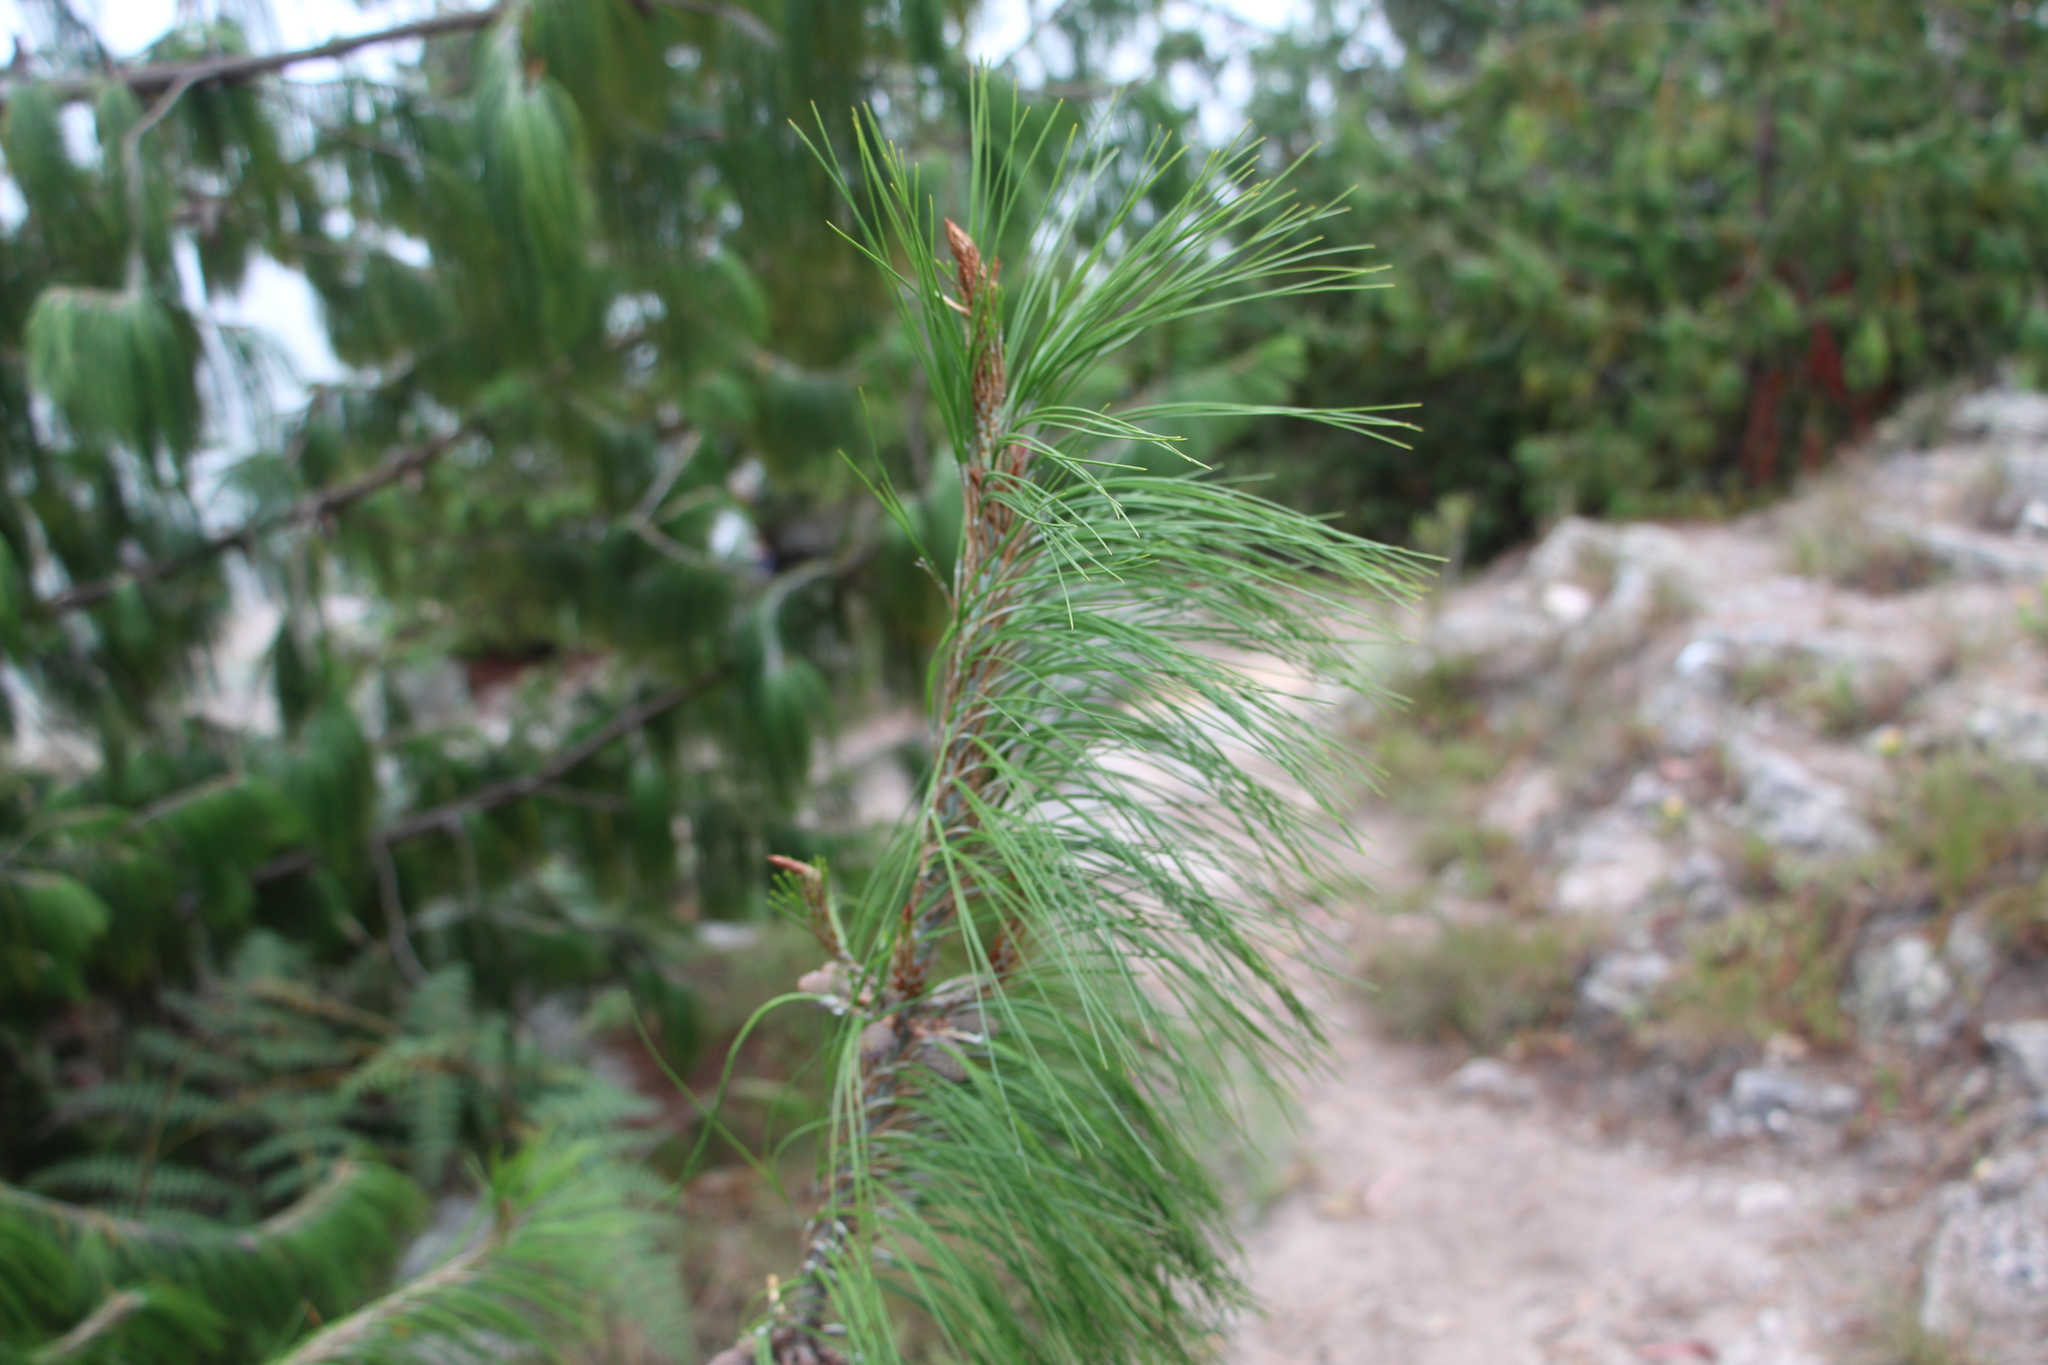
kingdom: Plantae
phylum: Tracheophyta
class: Pinopsida
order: Pinales
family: Pinaceae
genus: Pinus
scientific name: Pinus patula
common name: Mexican weeping pine
